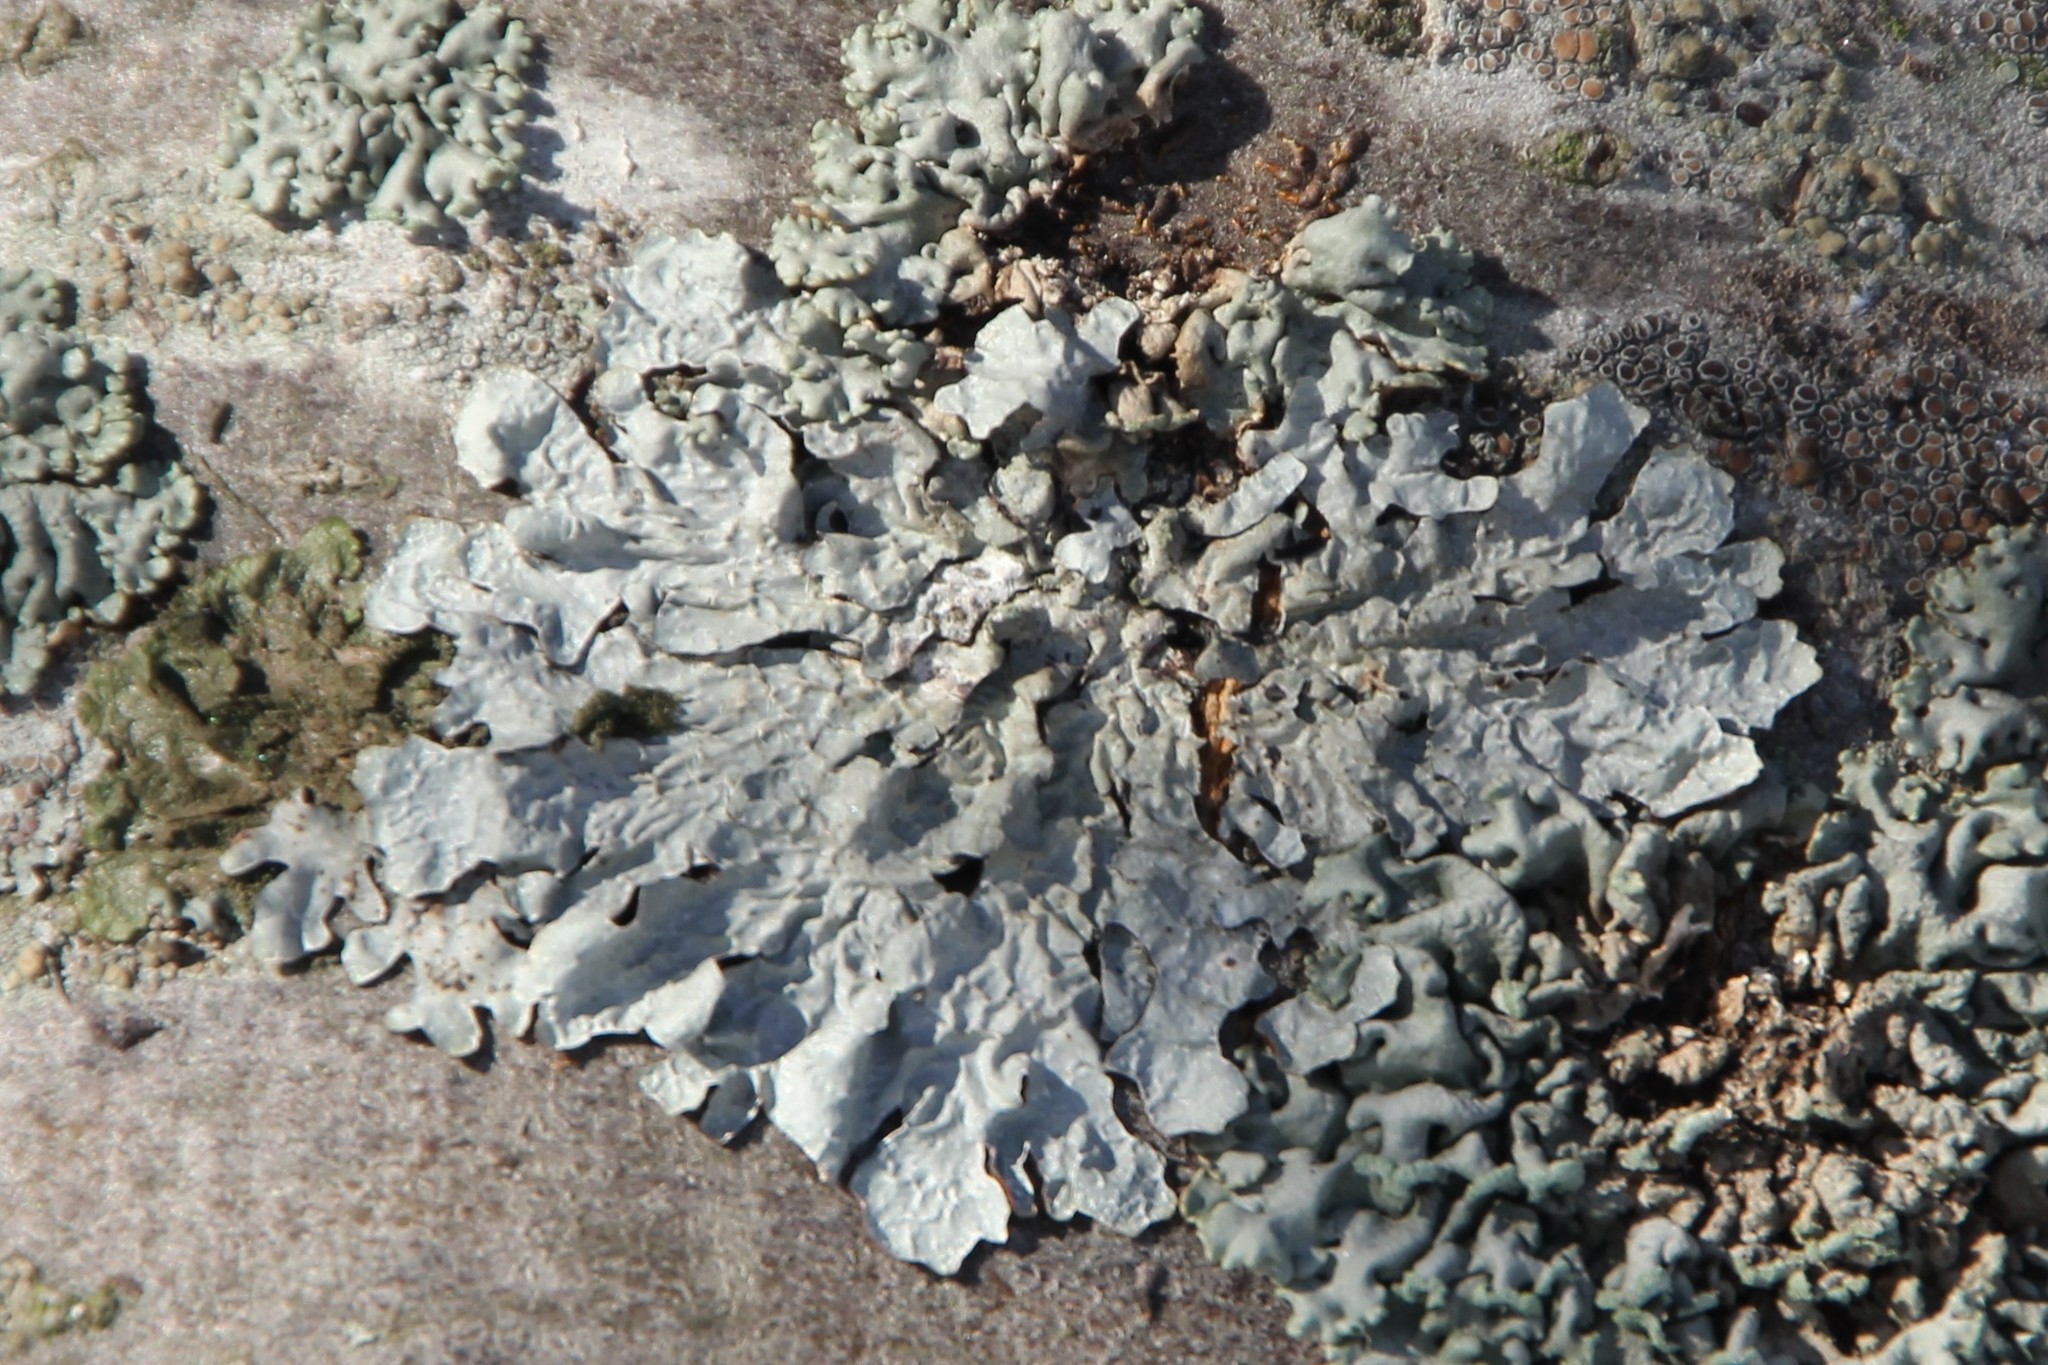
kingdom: Fungi
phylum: Ascomycota
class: Lecanoromycetes
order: Lecanorales
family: Parmeliaceae
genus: Parmelia
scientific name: Parmelia sulcata
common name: Netted shield lichen
